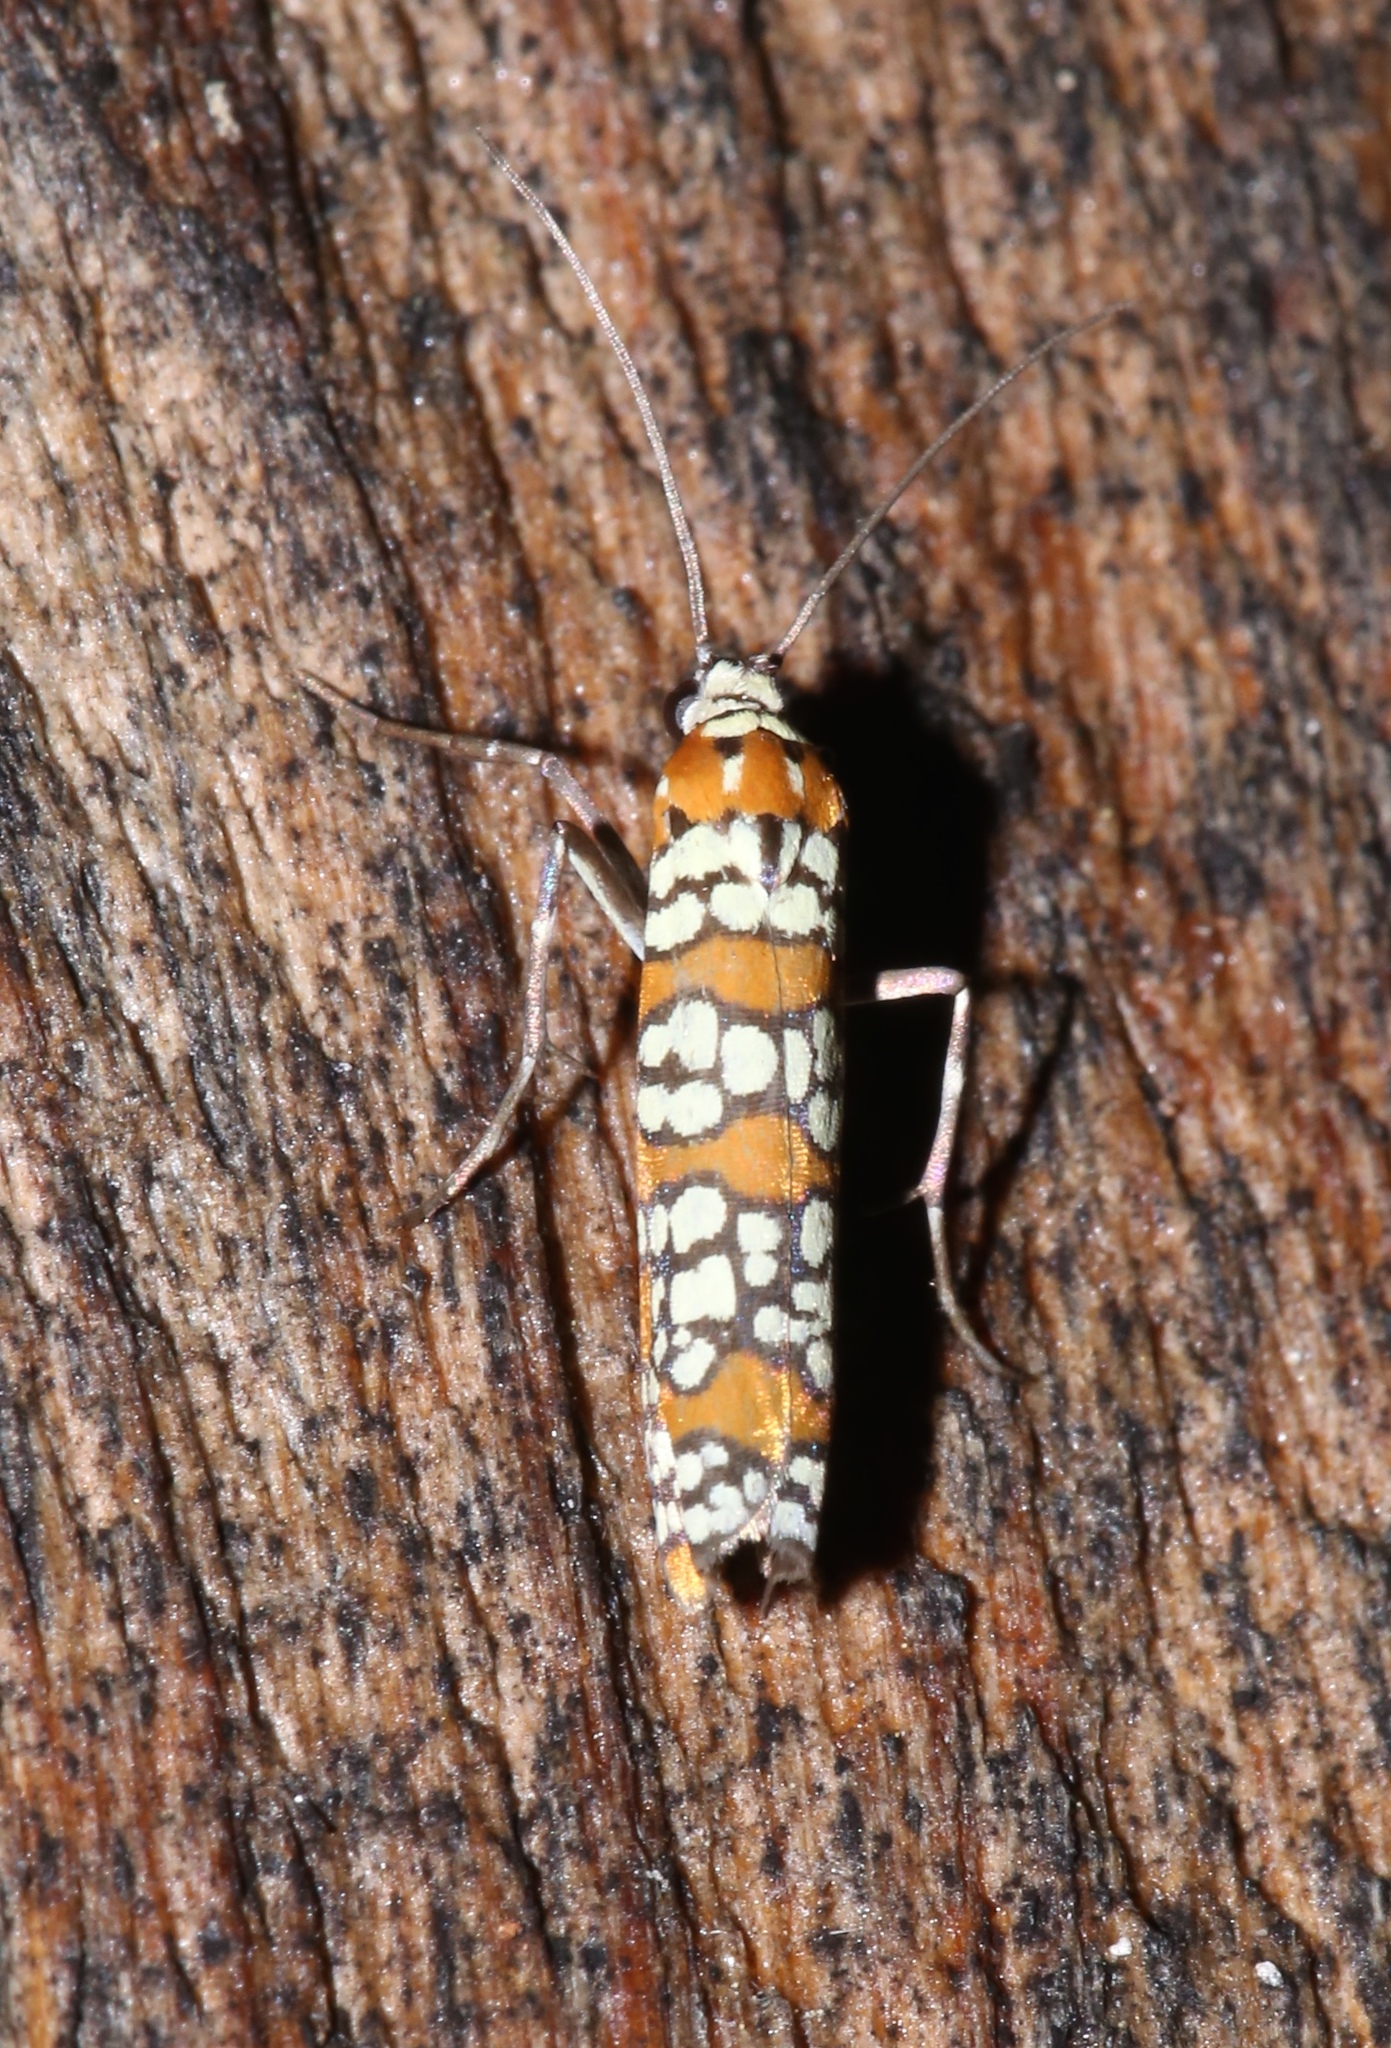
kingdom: Animalia
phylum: Arthropoda
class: Insecta
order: Lepidoptera
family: Attevidae
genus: Atteva
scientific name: Atteva punctella
